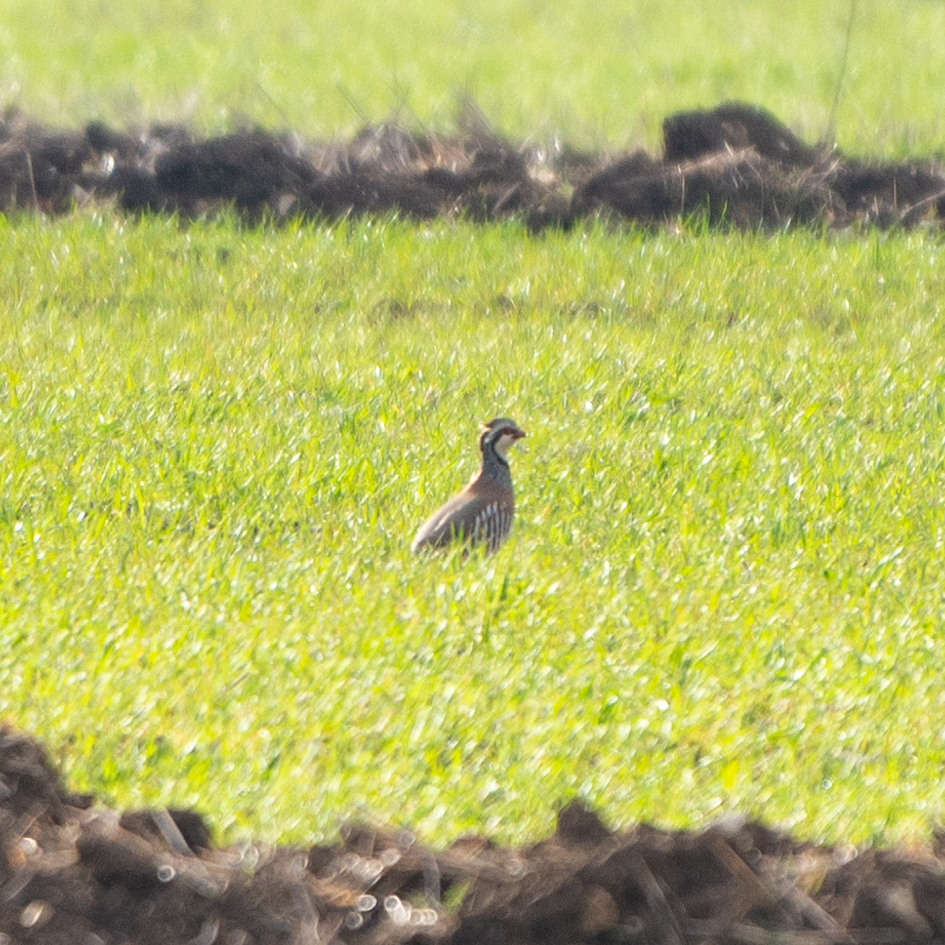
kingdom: Animalia
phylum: Chordata
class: Aves
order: Galliformes
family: Phasianidae
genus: Alectoris
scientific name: Alectoris rufa
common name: Red-legged partridge
